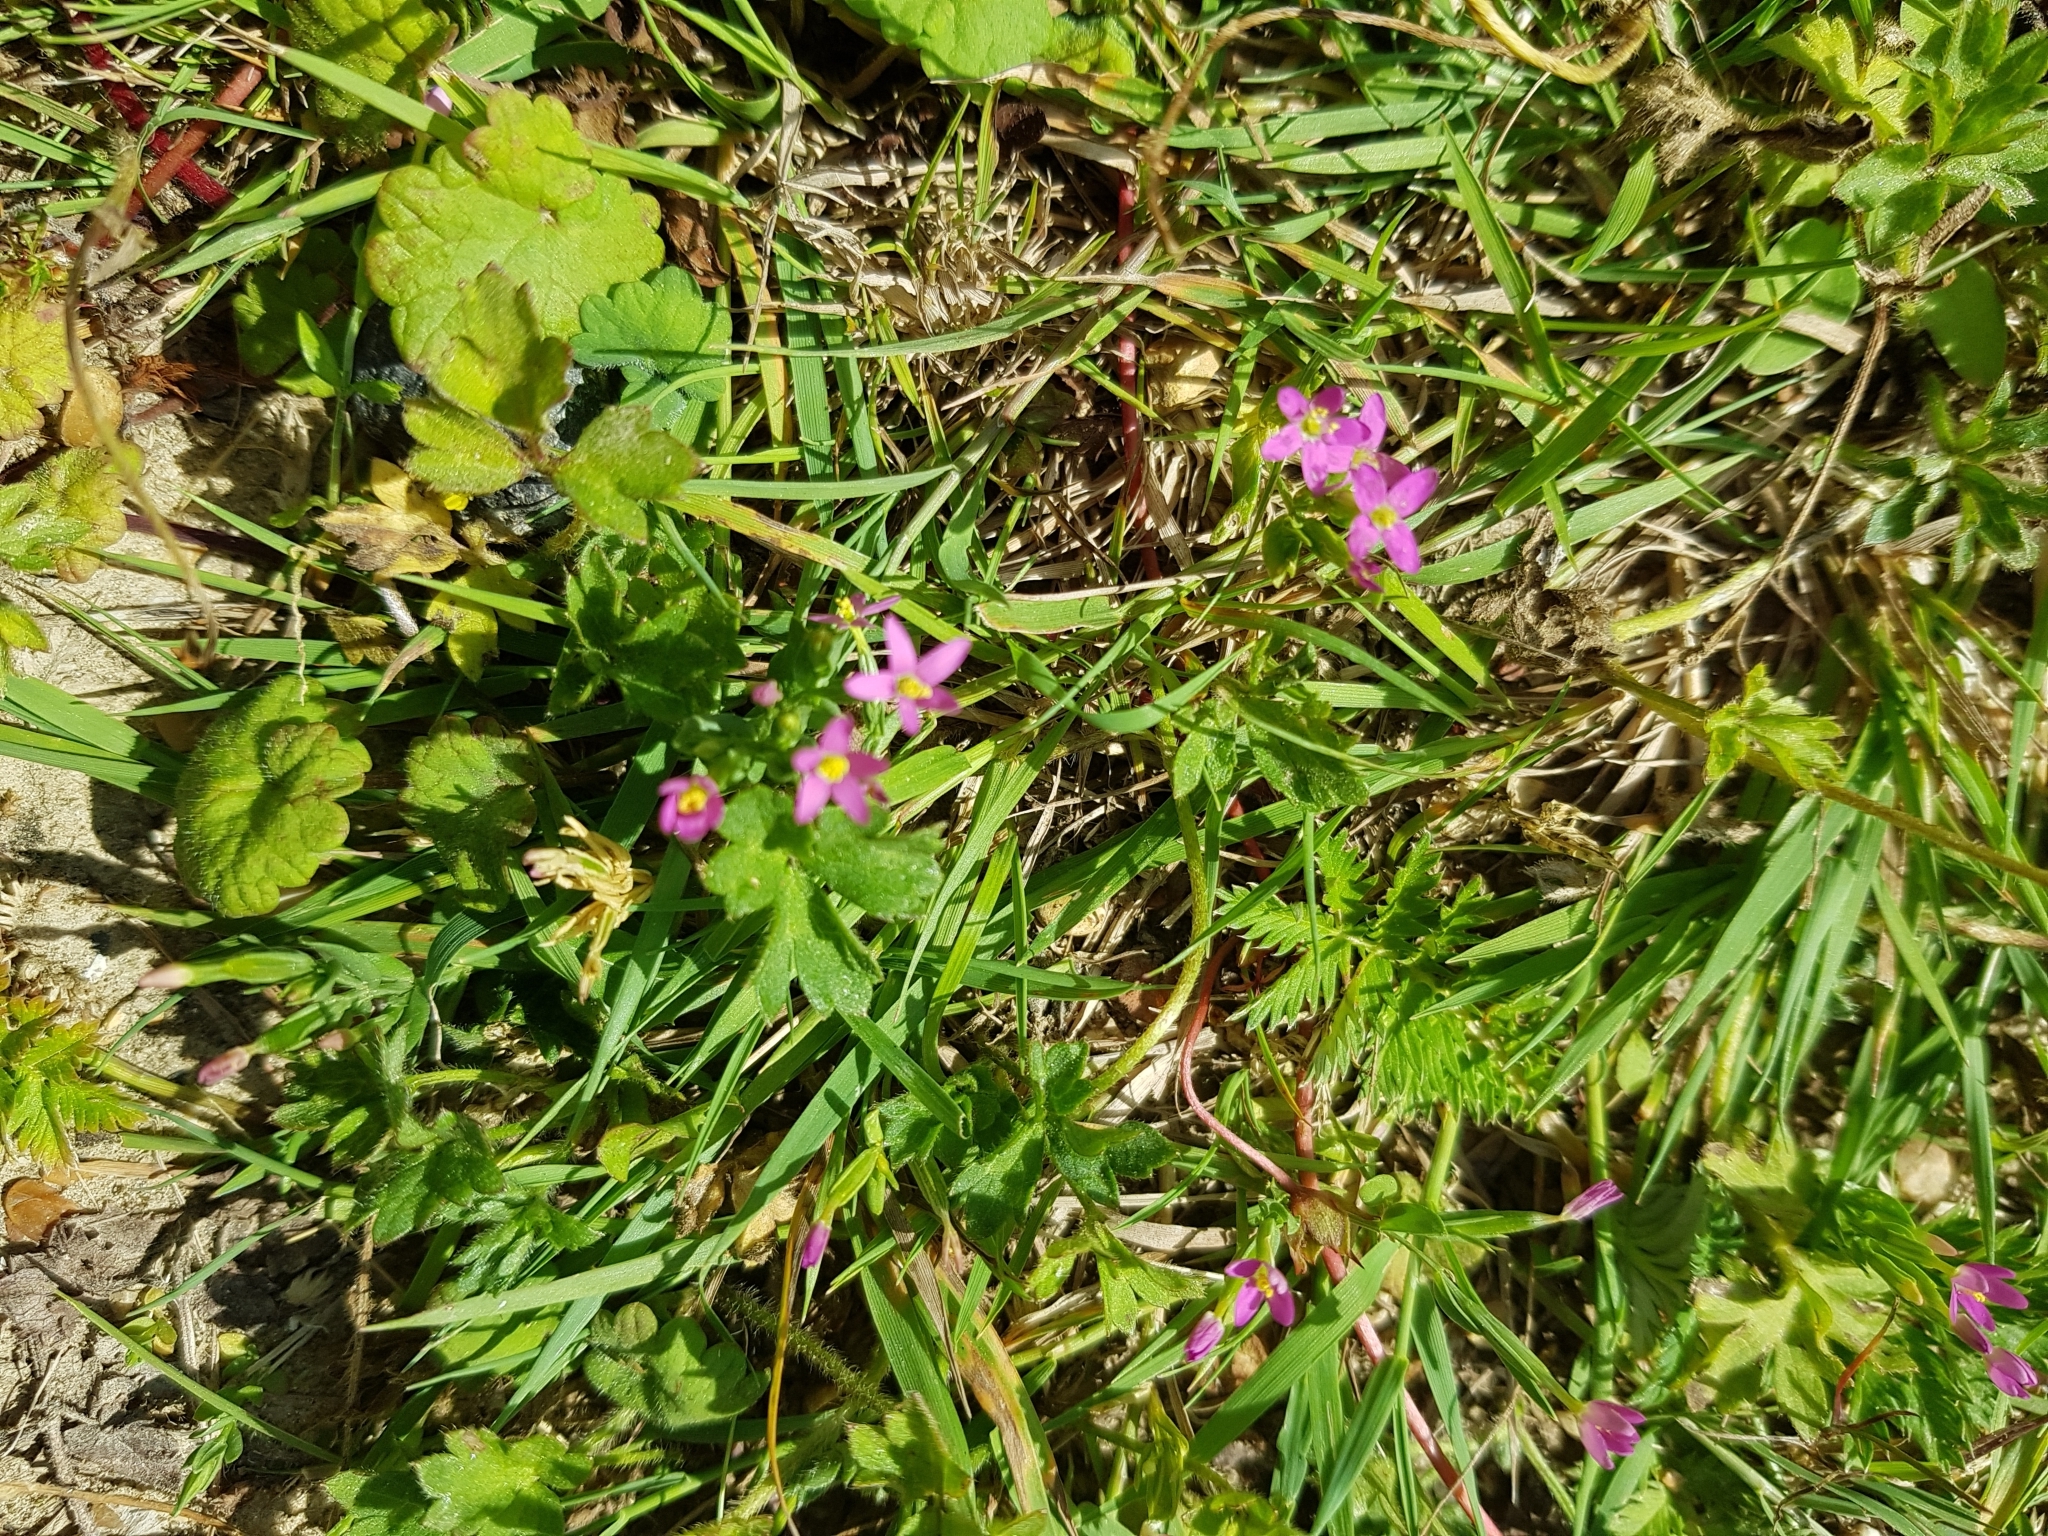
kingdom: Plantae
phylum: Tracheophyta
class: Magnoliopsida
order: Gentianales
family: Gentianaceae
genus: Centaurium
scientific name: Centaurium pulchellum
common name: Lesser centaury
